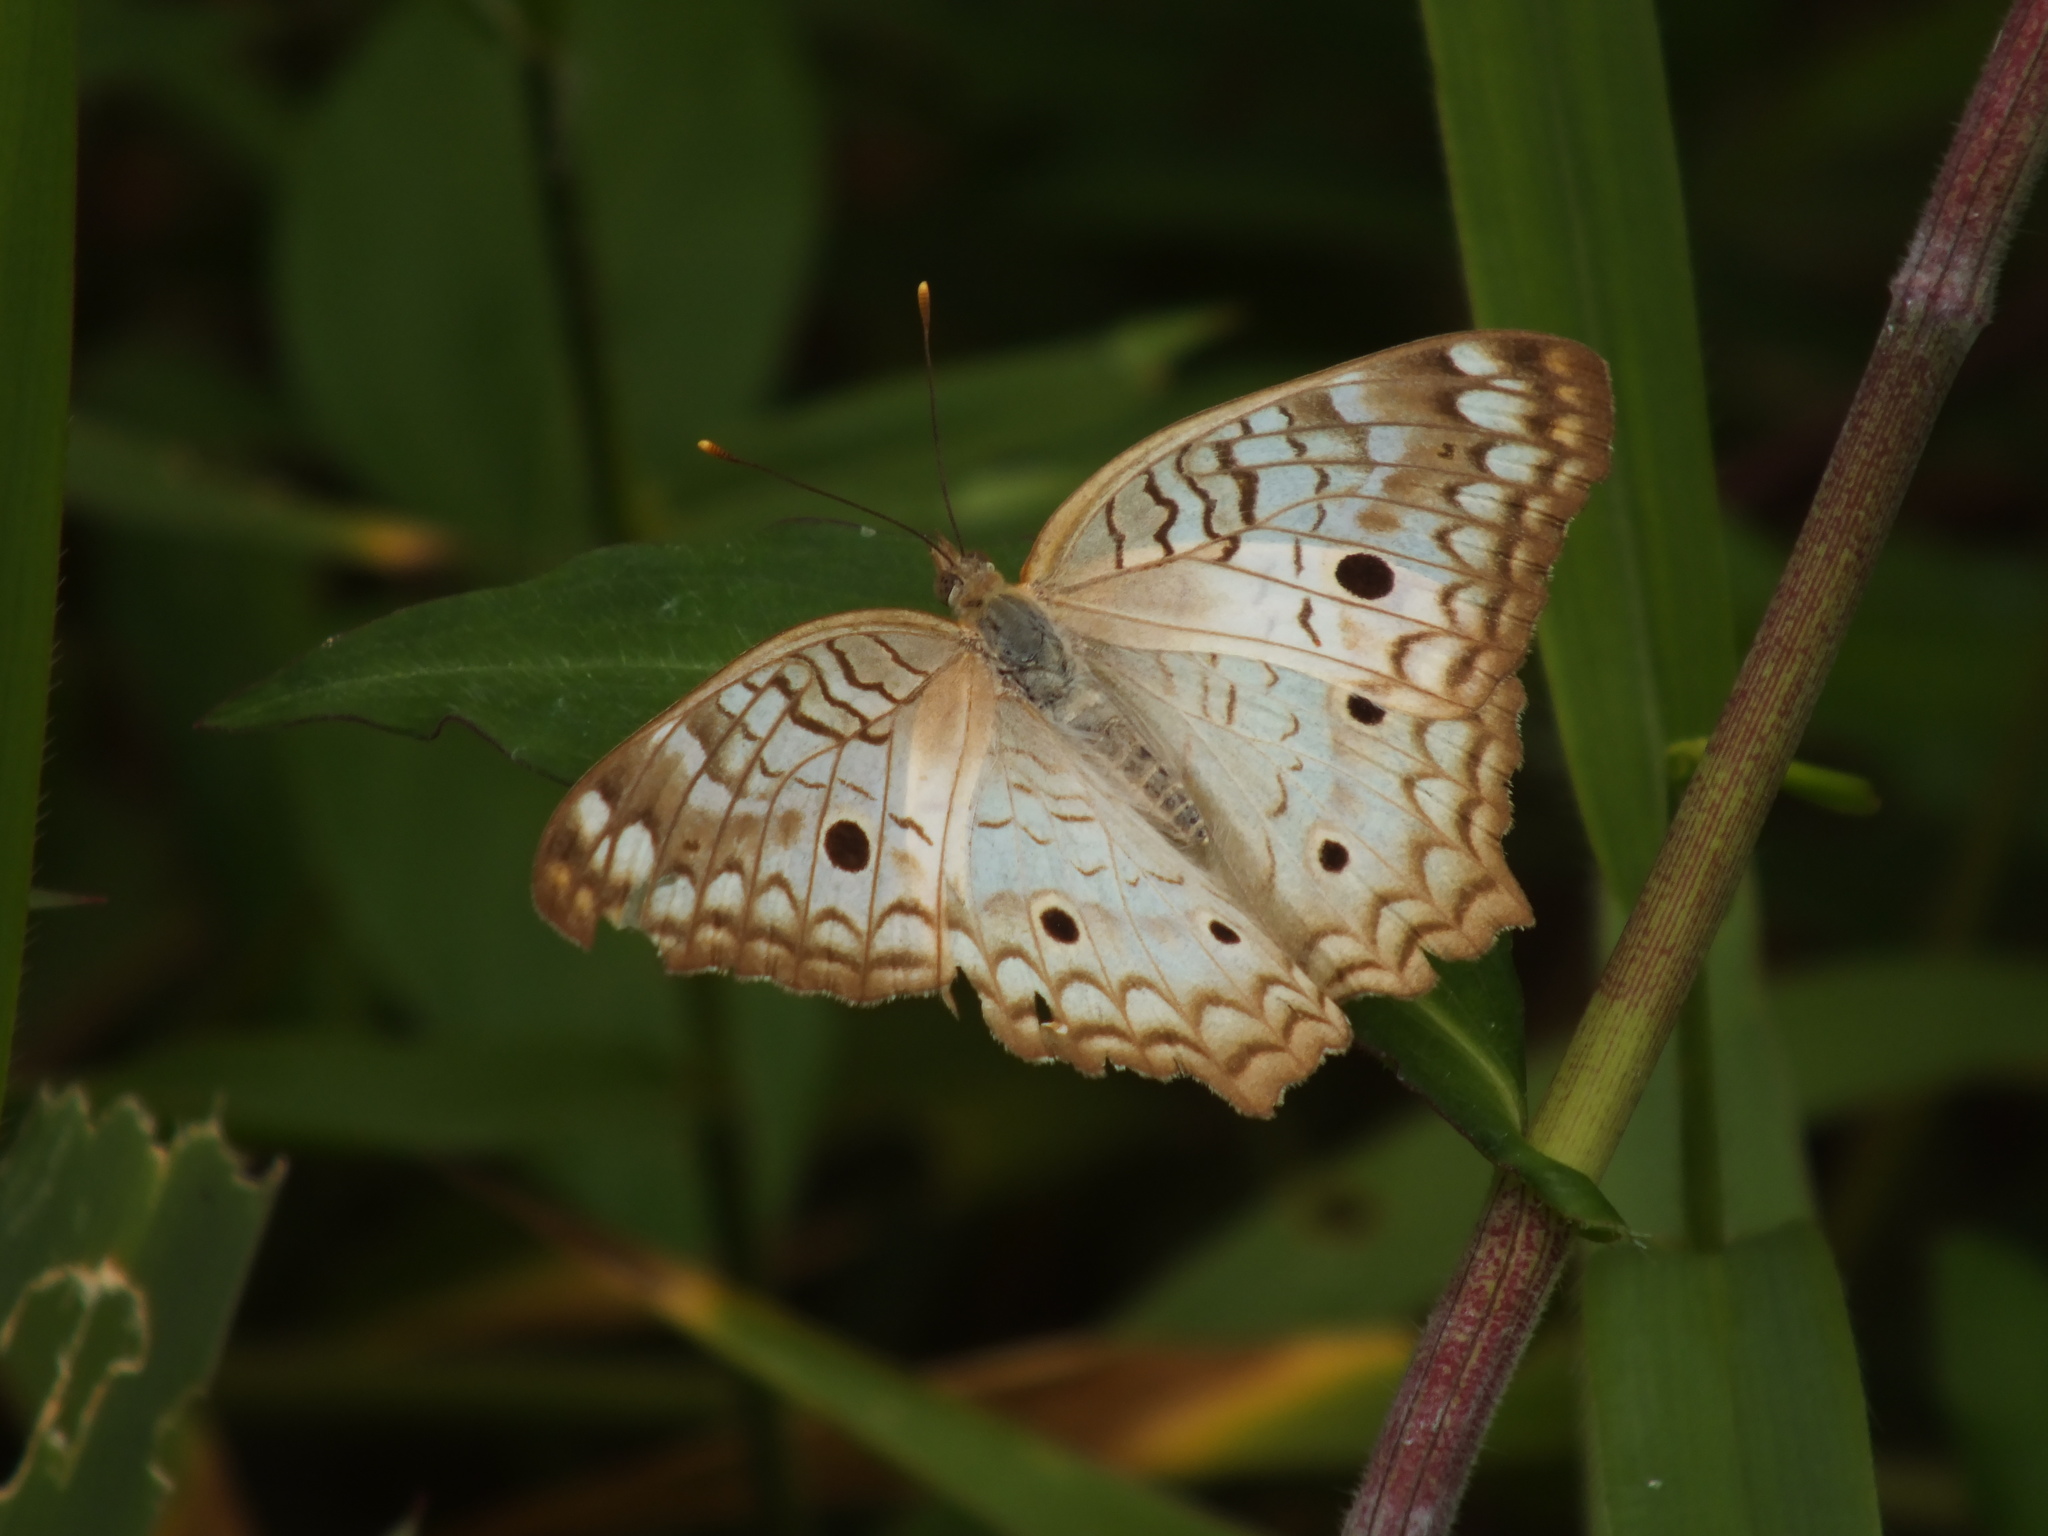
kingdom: Animalia
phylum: Arthropoda
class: Insecta
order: Lepidoptera
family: Nymphalidae
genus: Anartia
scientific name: Anartia jatrophae
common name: White peacock
